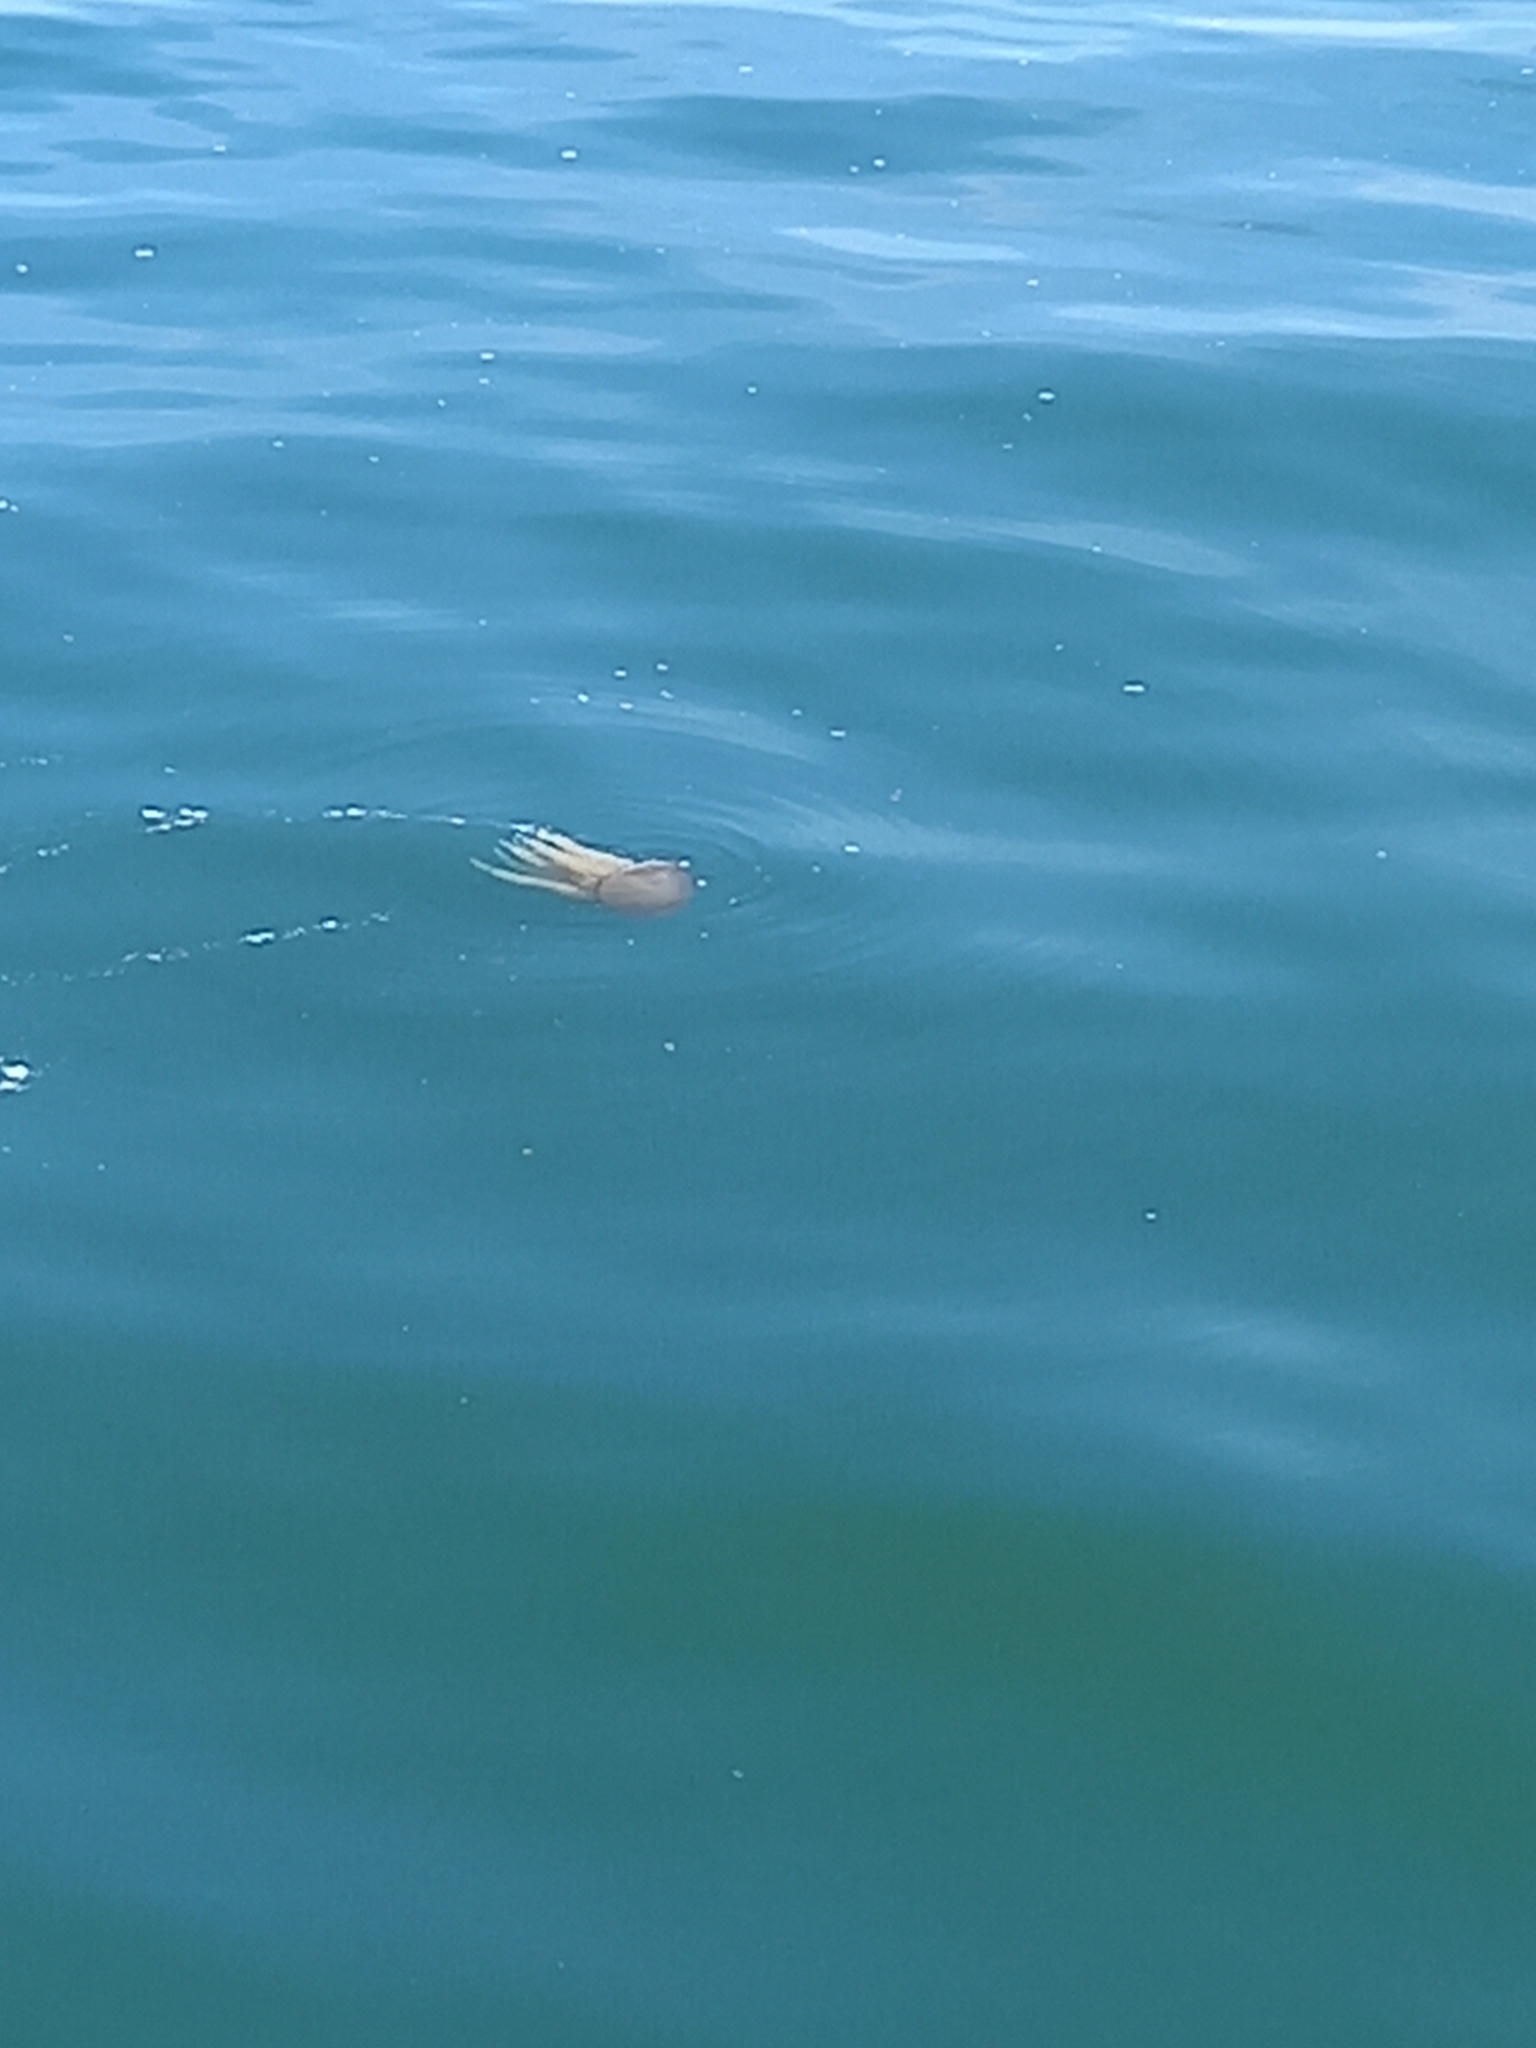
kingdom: Animalia
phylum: Cnidaria
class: Scyphozoa
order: Rhizostomeae
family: Catostylidae
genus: Catostylus
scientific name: Catostylus tagi
